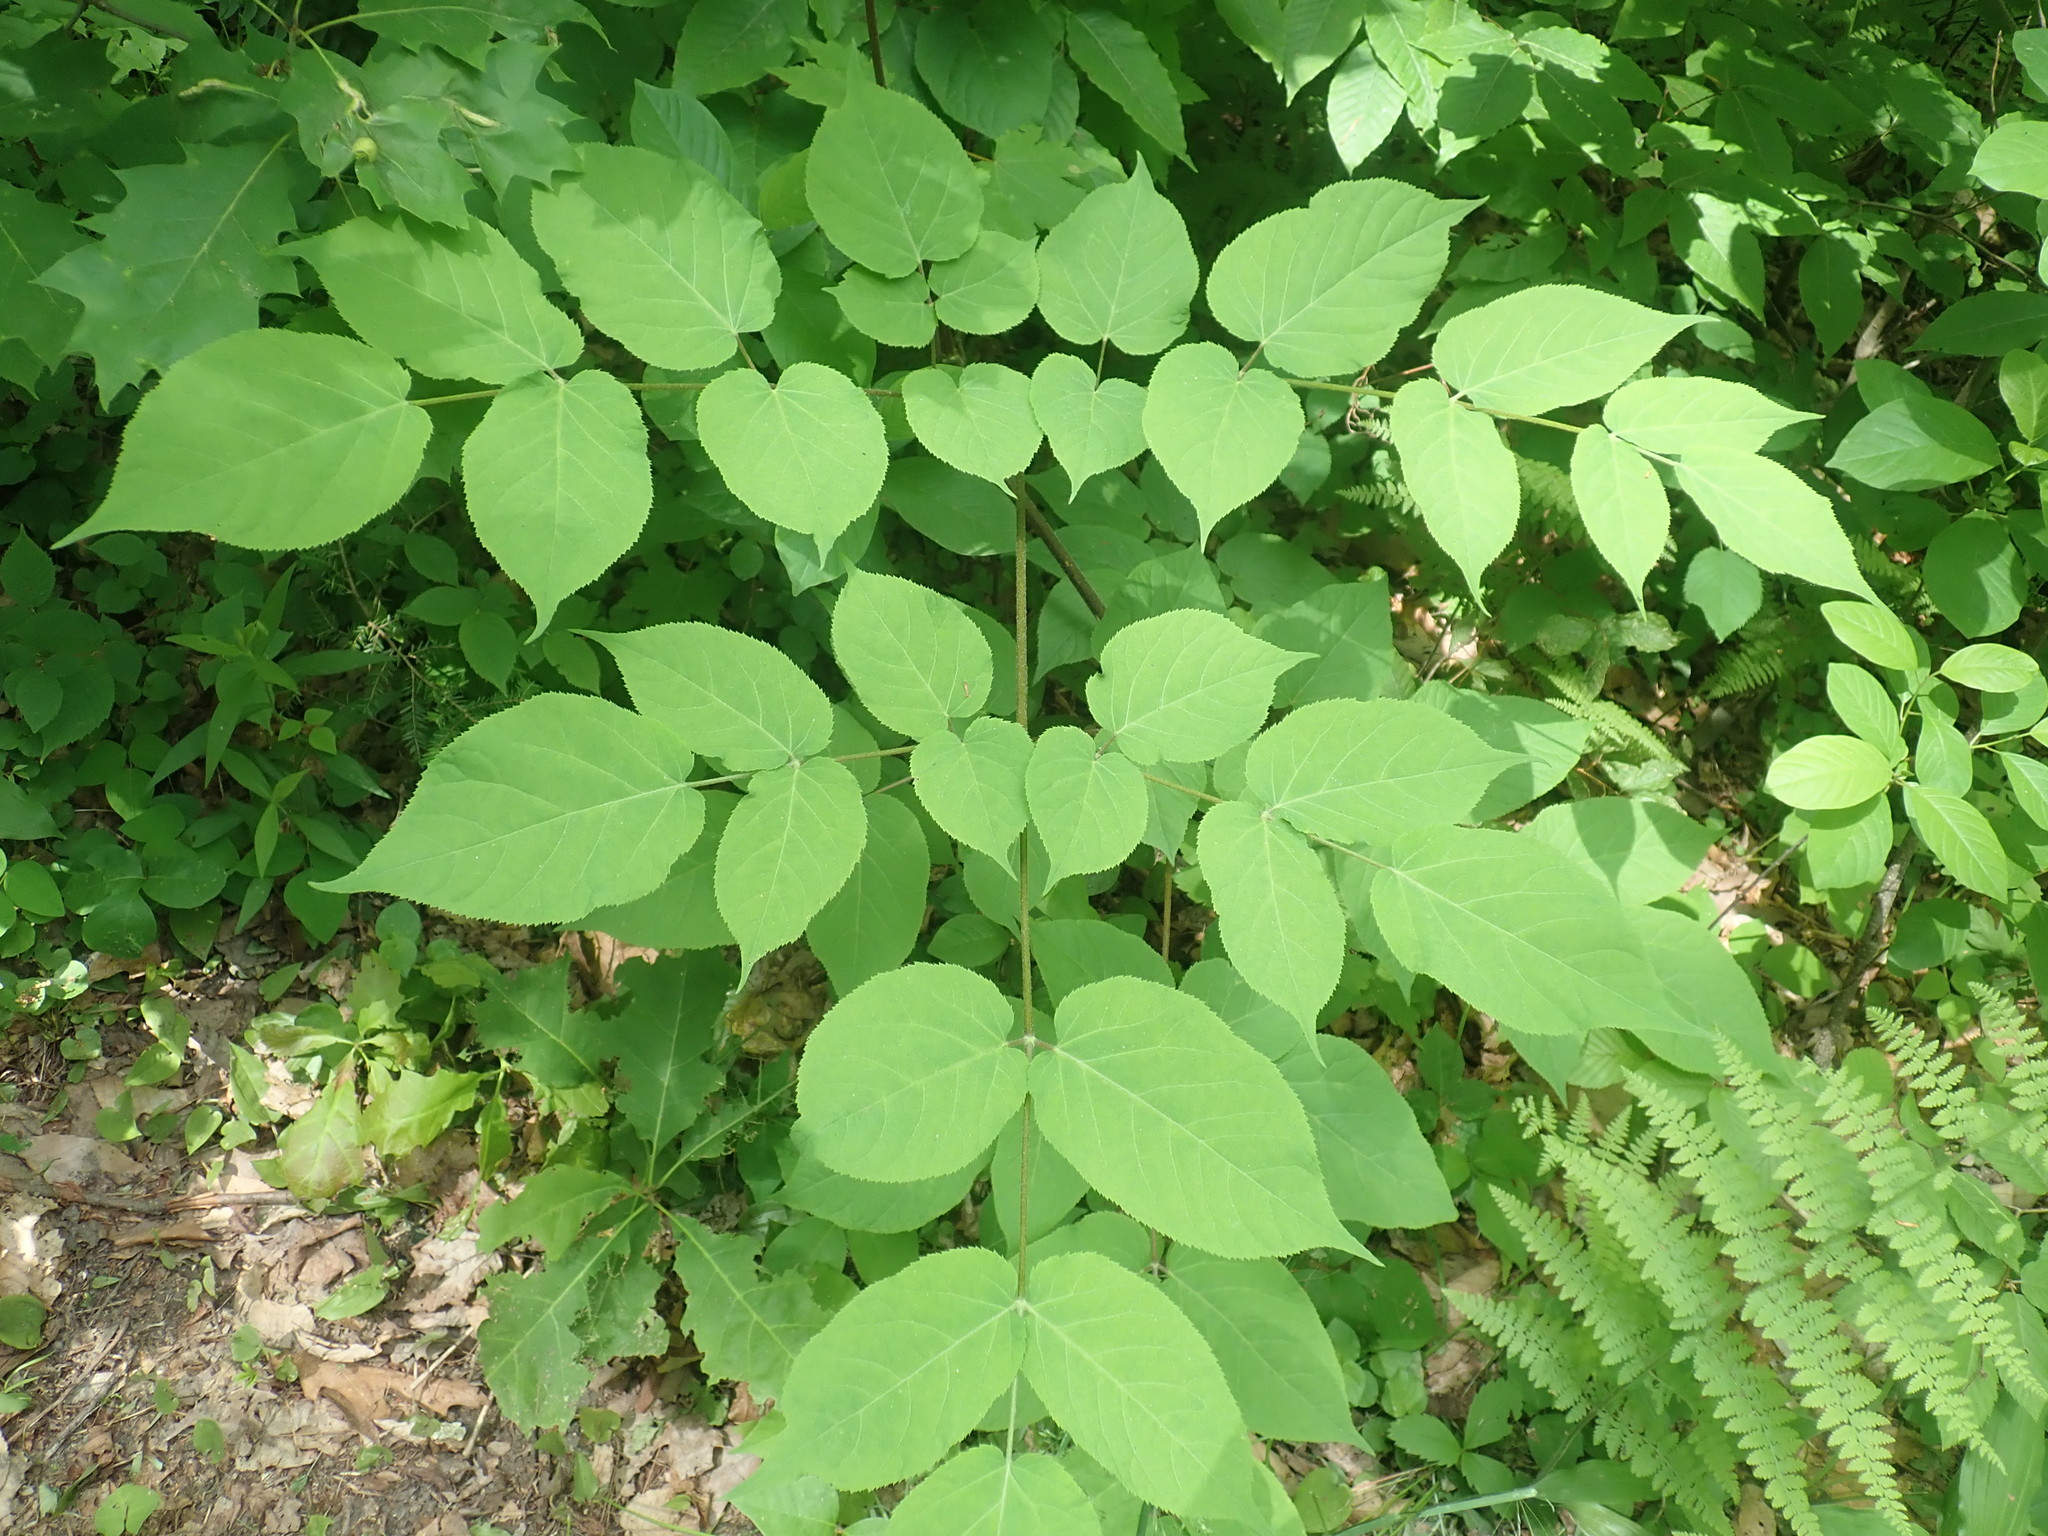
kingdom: Plantae
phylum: Tracheophyta
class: Magnoliopsida
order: Apiales
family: Araliaceae
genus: Aralia
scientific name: Aralia racemosa
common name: American-spikenard
